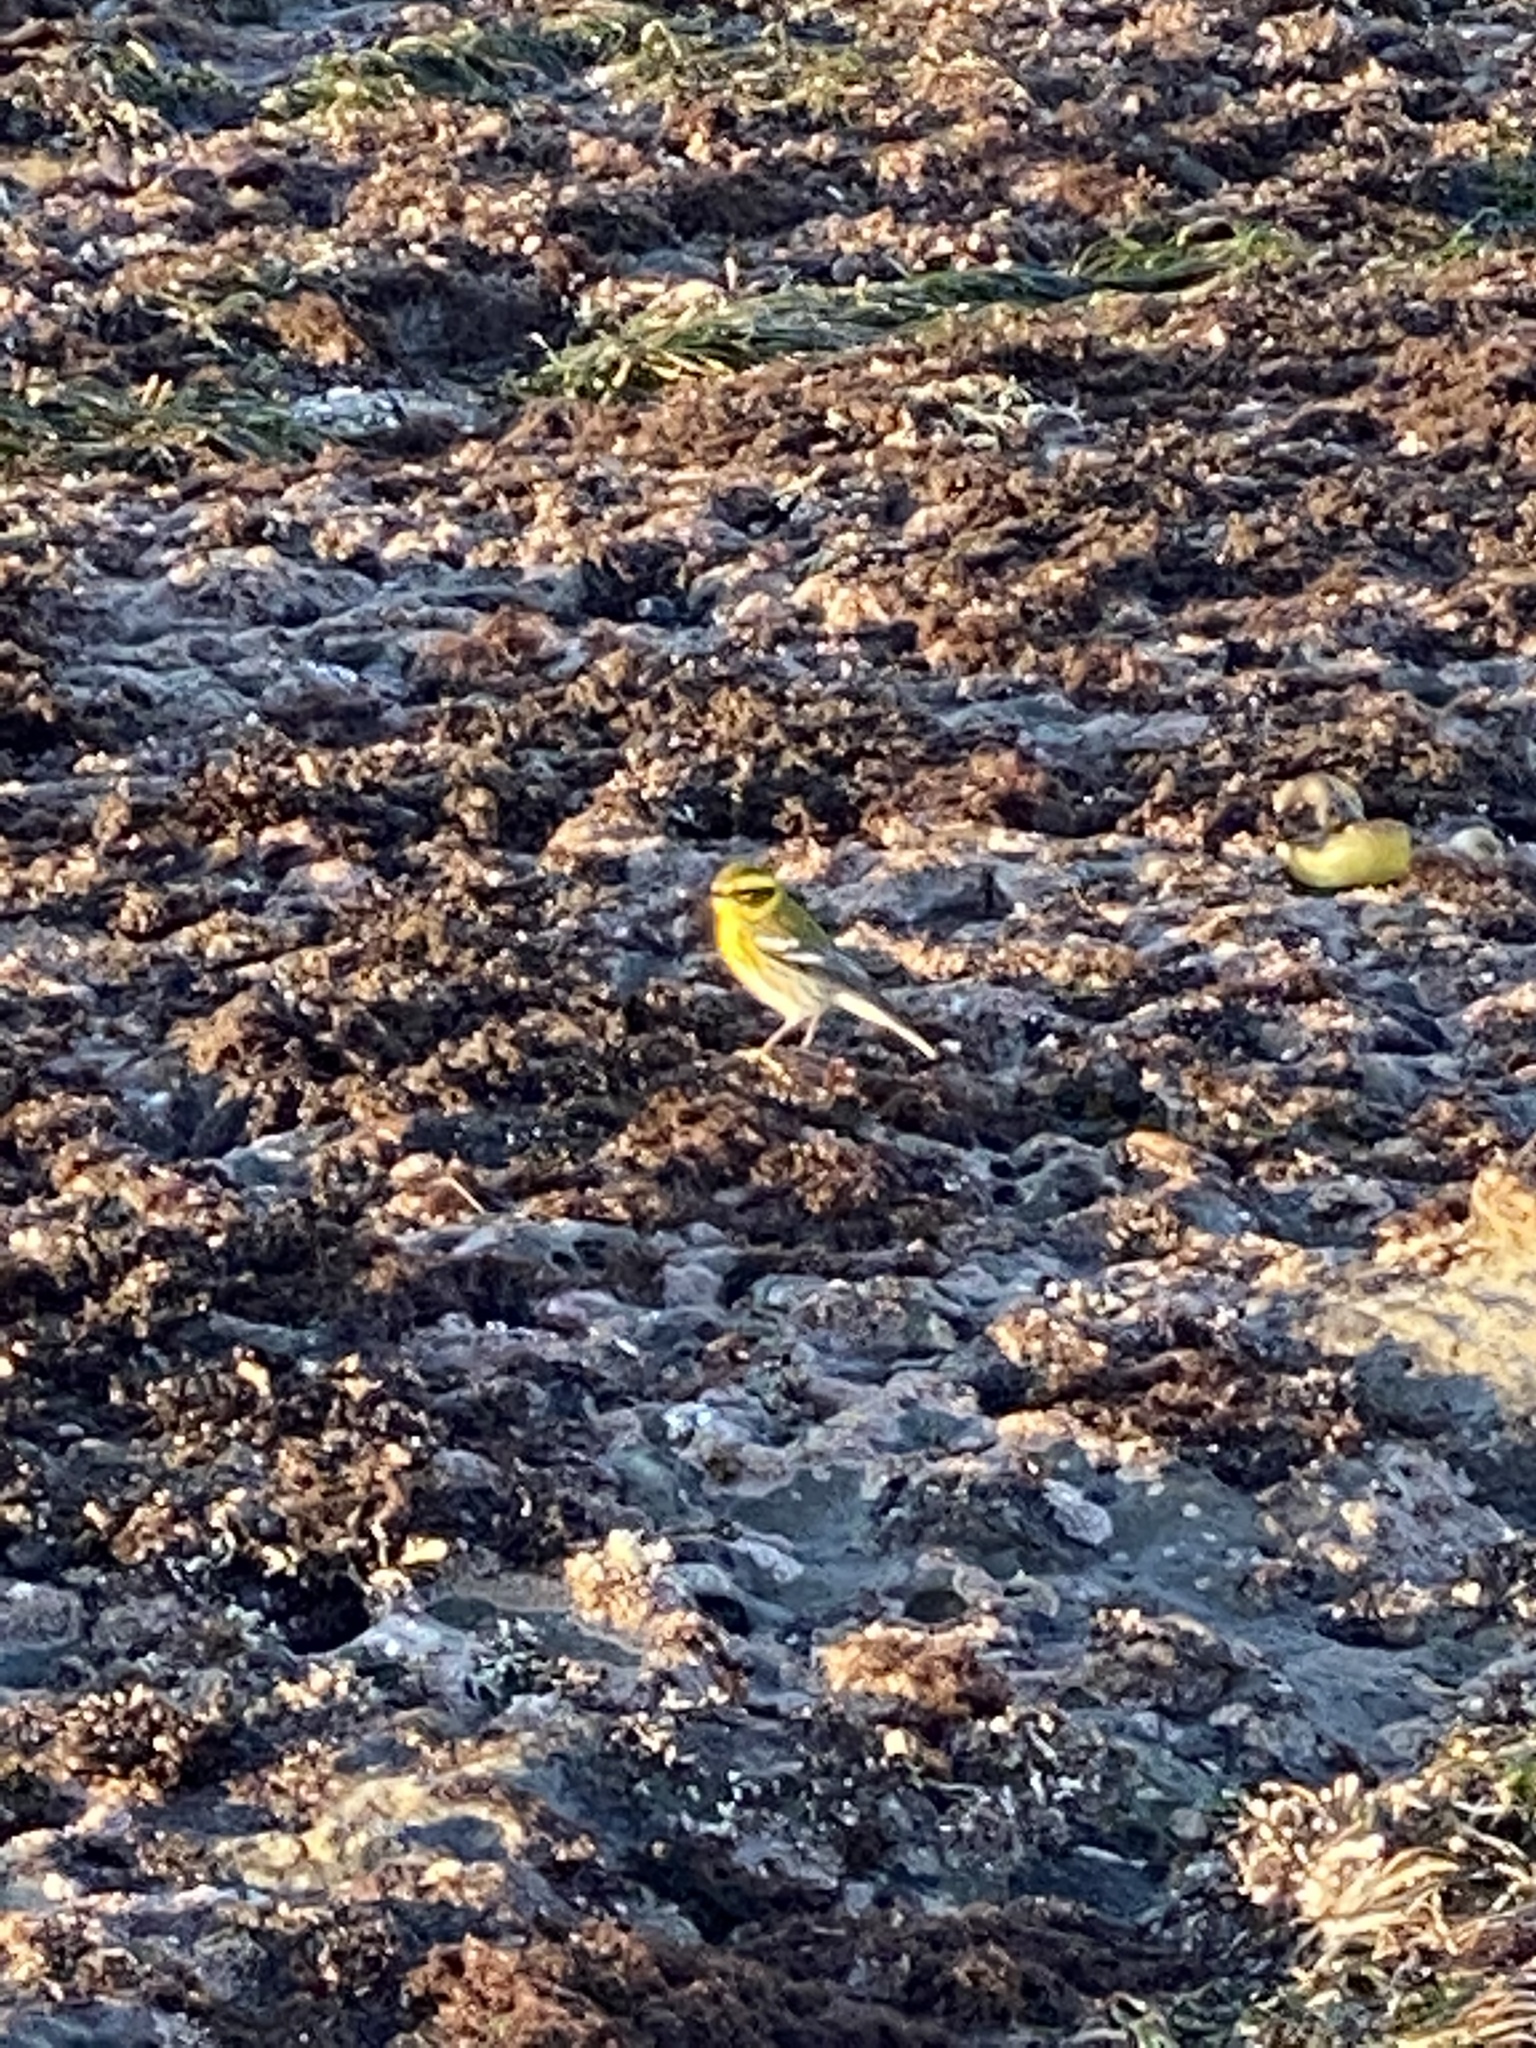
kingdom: Animalia
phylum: Chordata
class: Aves
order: Passeriformes
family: Parulidae
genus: Setophaga
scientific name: Setophaga townsendi
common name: Townsend's warbler
